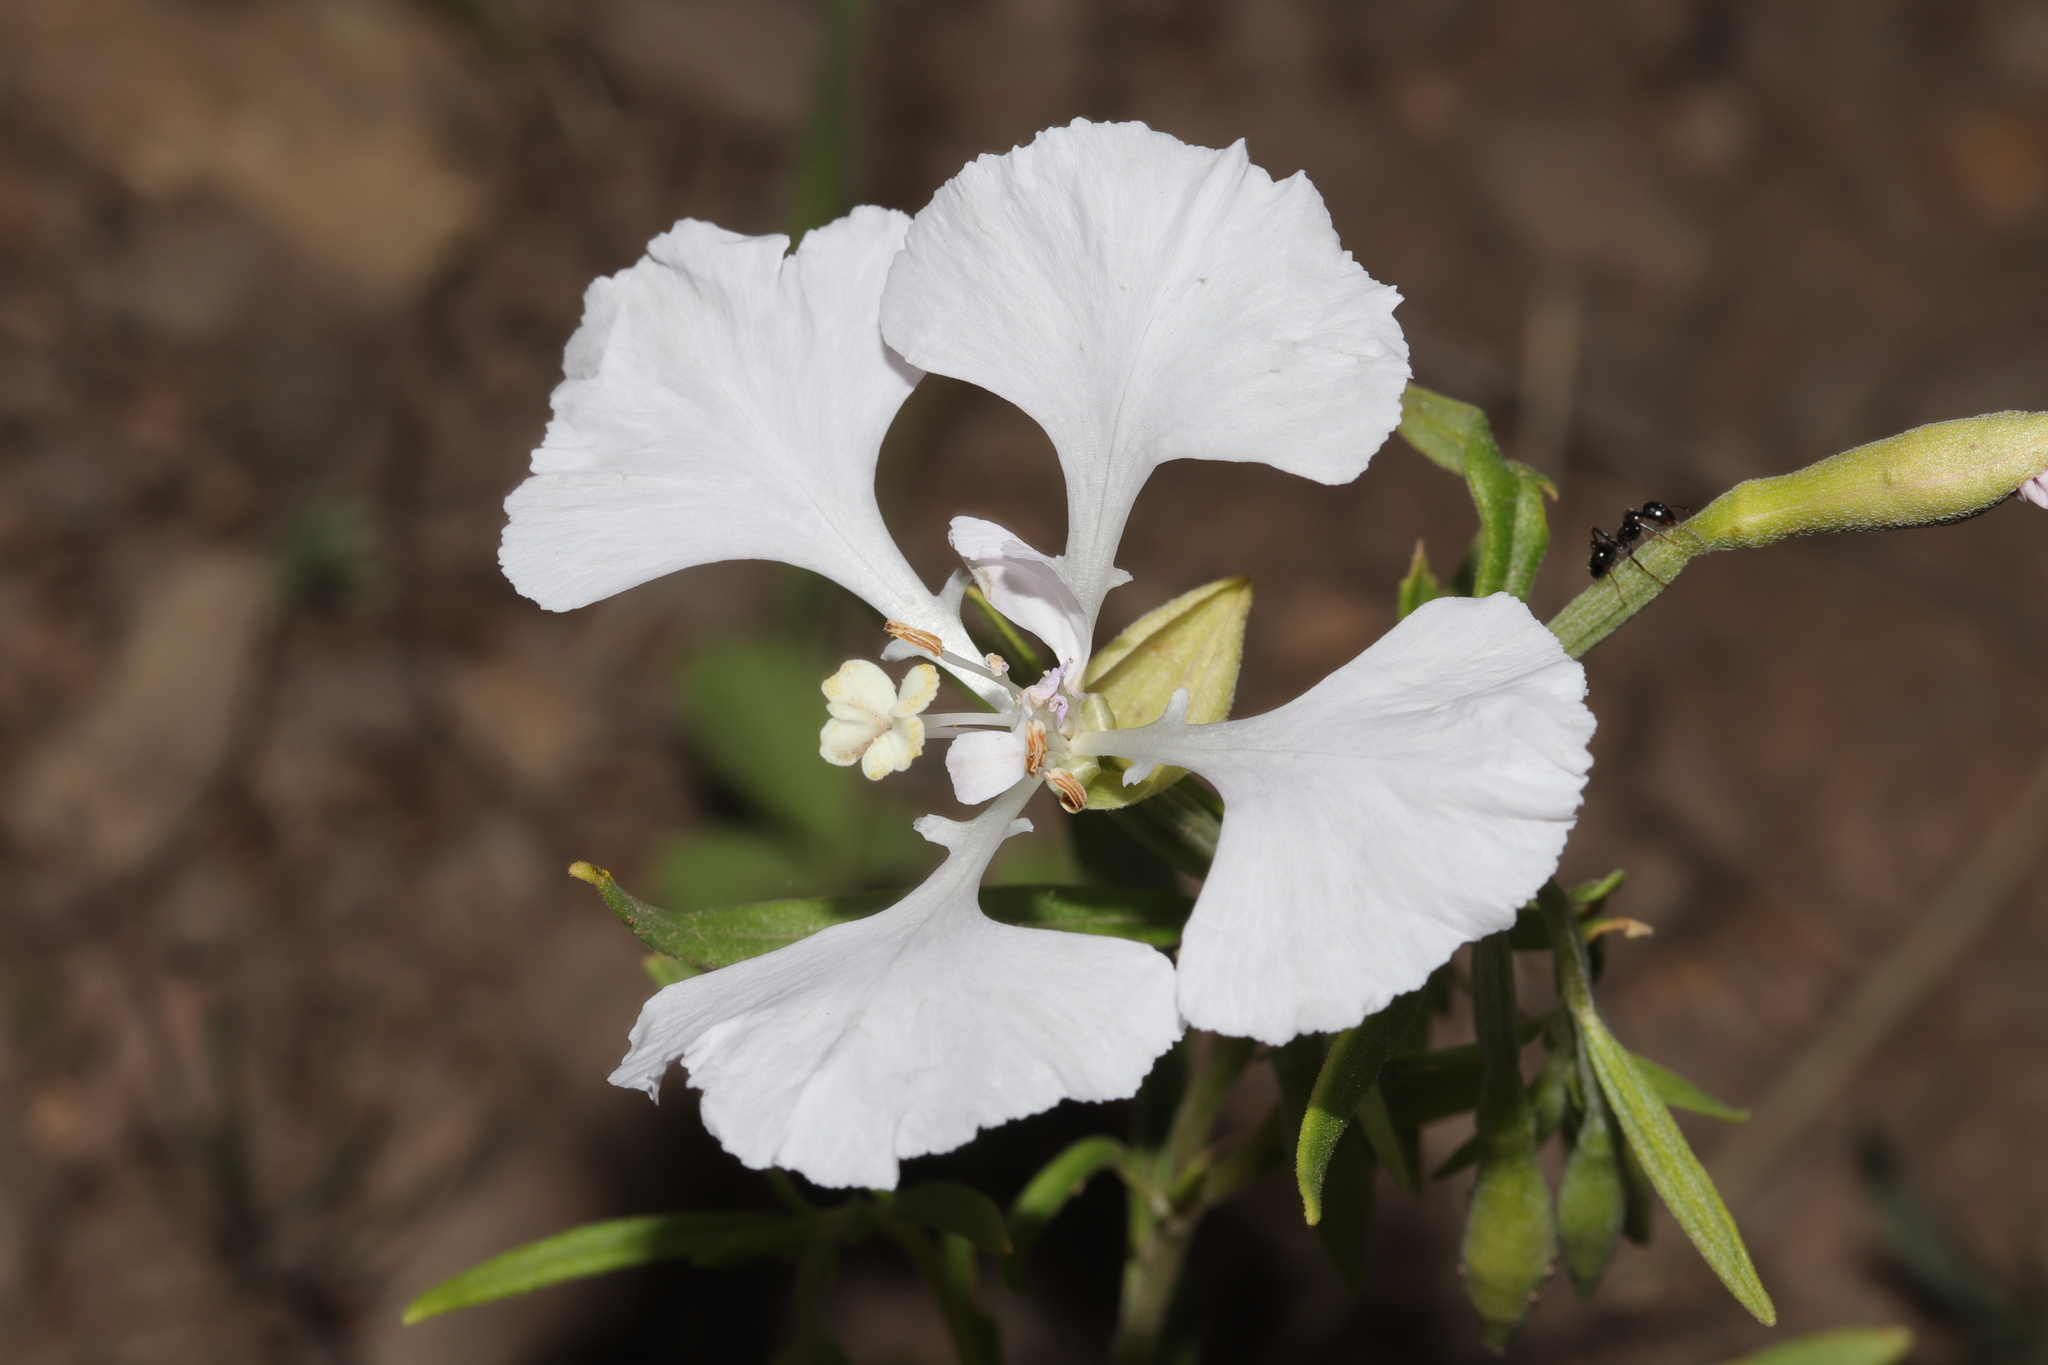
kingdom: Plantae
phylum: Tracheophyta
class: Magnoliopsida
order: Myrtales
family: Onagraceae
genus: Clarkia
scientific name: Clarkia pulchella
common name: Deer horn
